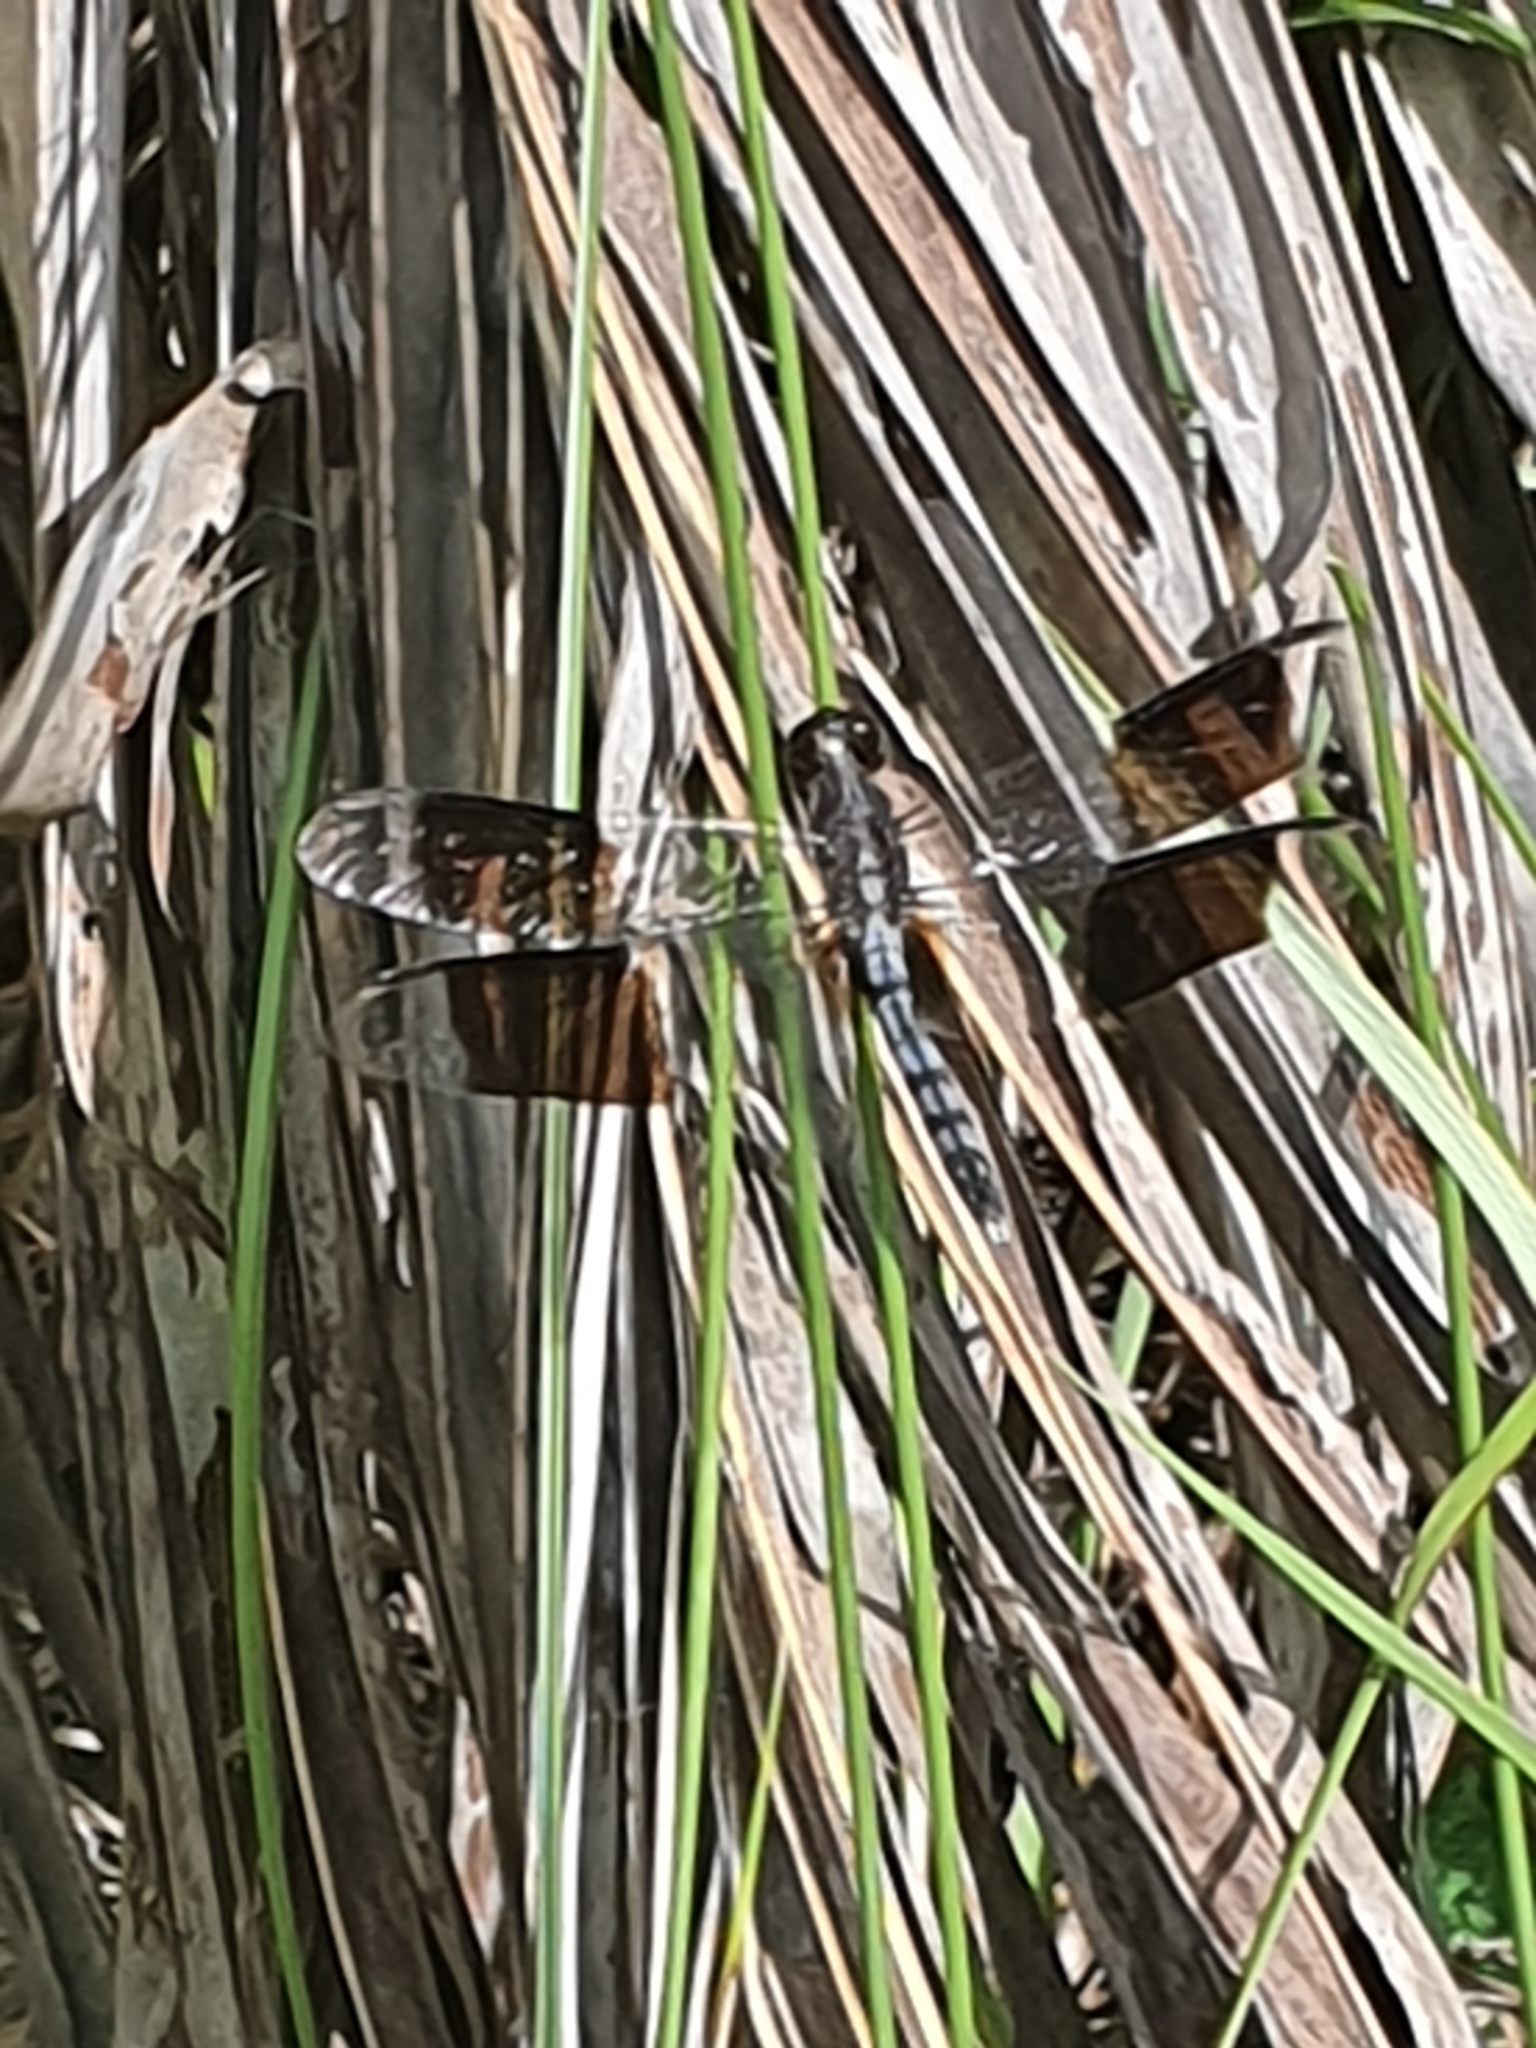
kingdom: Animalia
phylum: Arthropoda
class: Insecta
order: Odonata
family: Libellulidae
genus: Erythrodiplax
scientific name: Erythrodiplax umbrata
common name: Band-winged dragonlet
